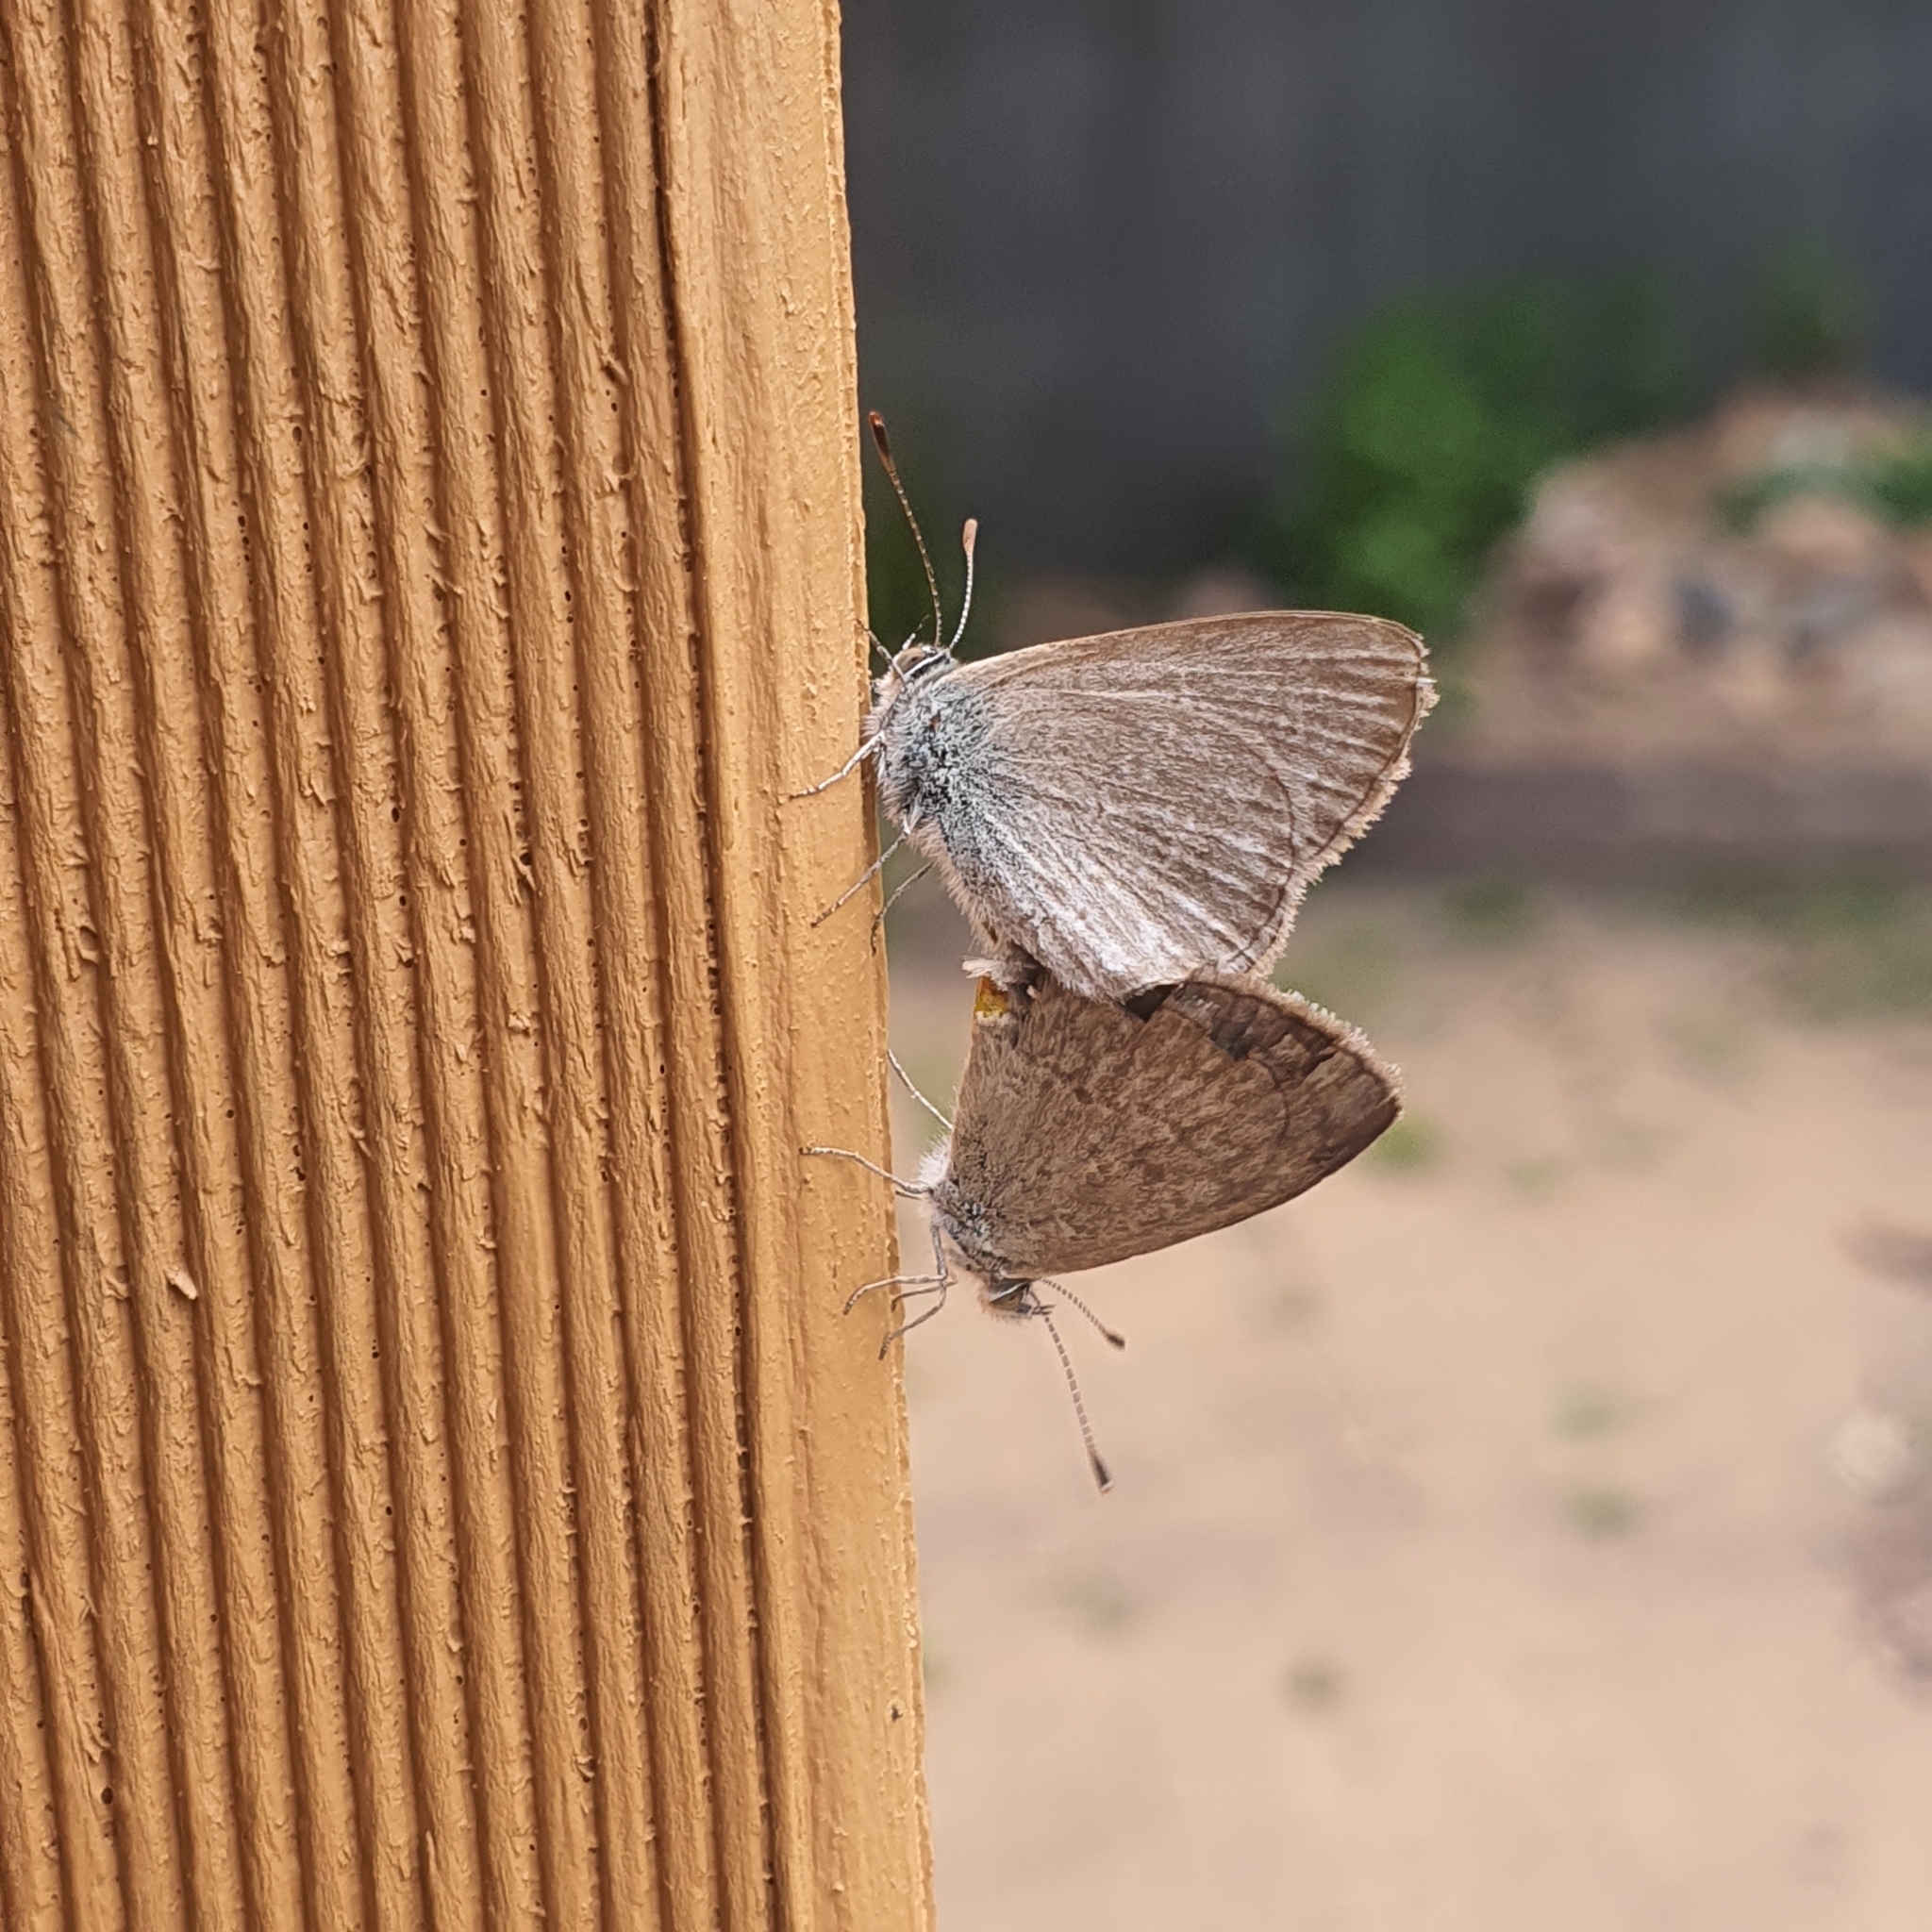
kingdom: Animalia
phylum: Arthropoda
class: Insecta
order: Lepidoptera
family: Lycaenidae
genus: Zizina
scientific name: Zizina otis
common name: Lesser grass blue
